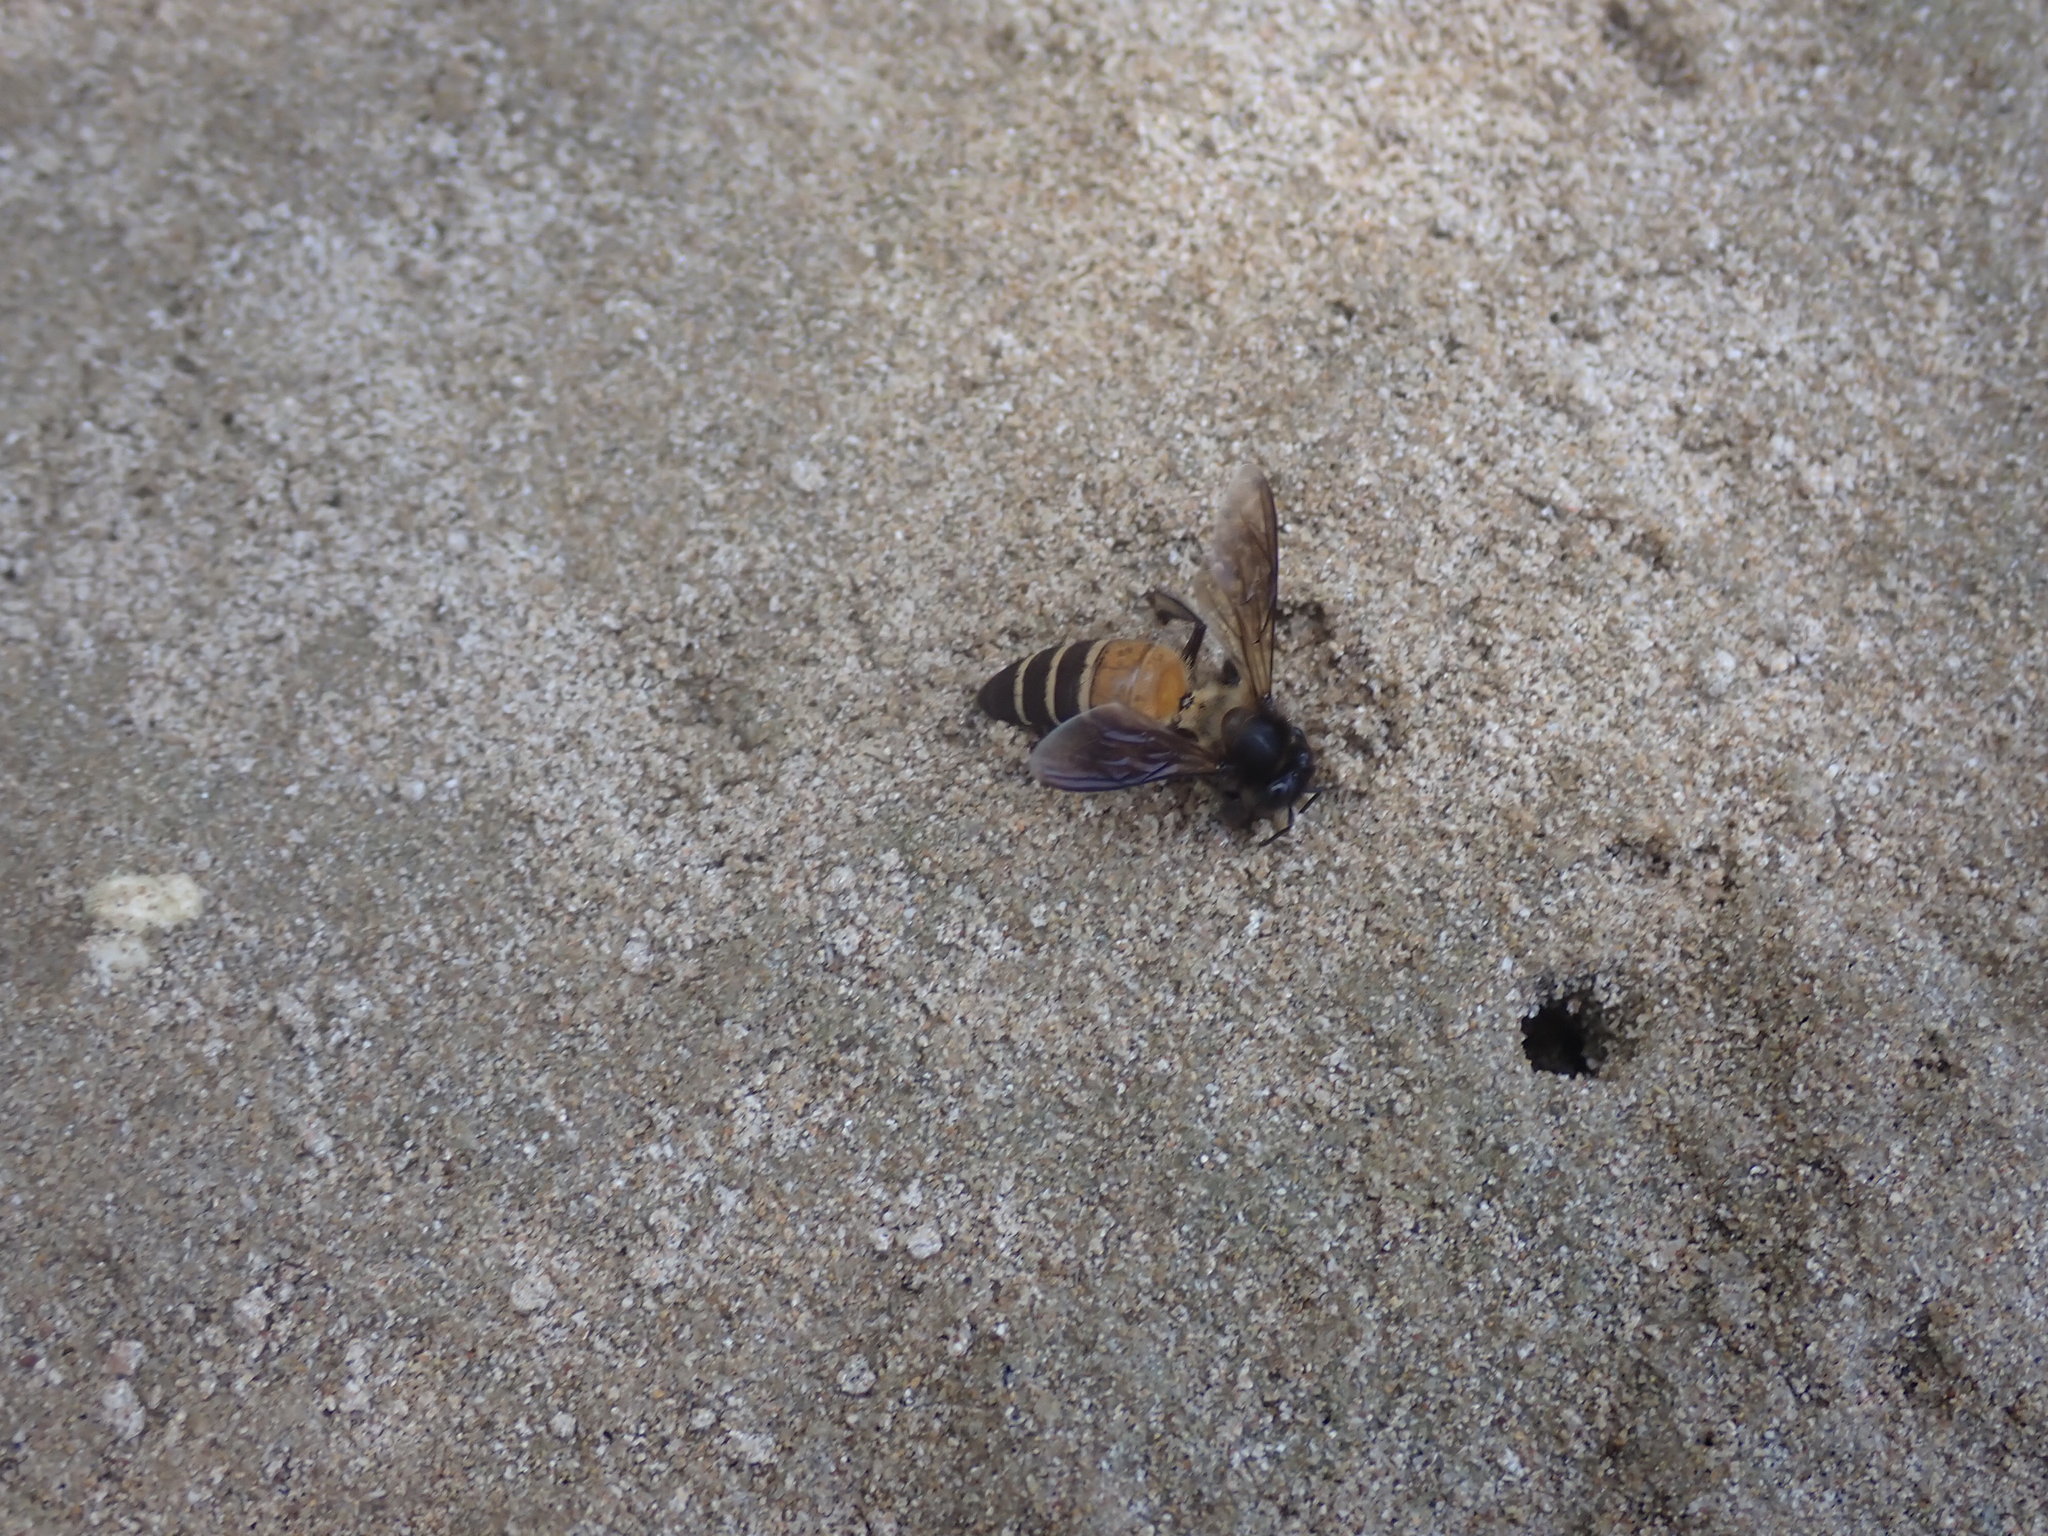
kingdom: Animalia
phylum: Arthropoda
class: Insecta
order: Hymenoptera
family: Apidae
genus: Apis
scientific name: Apis dorsata
